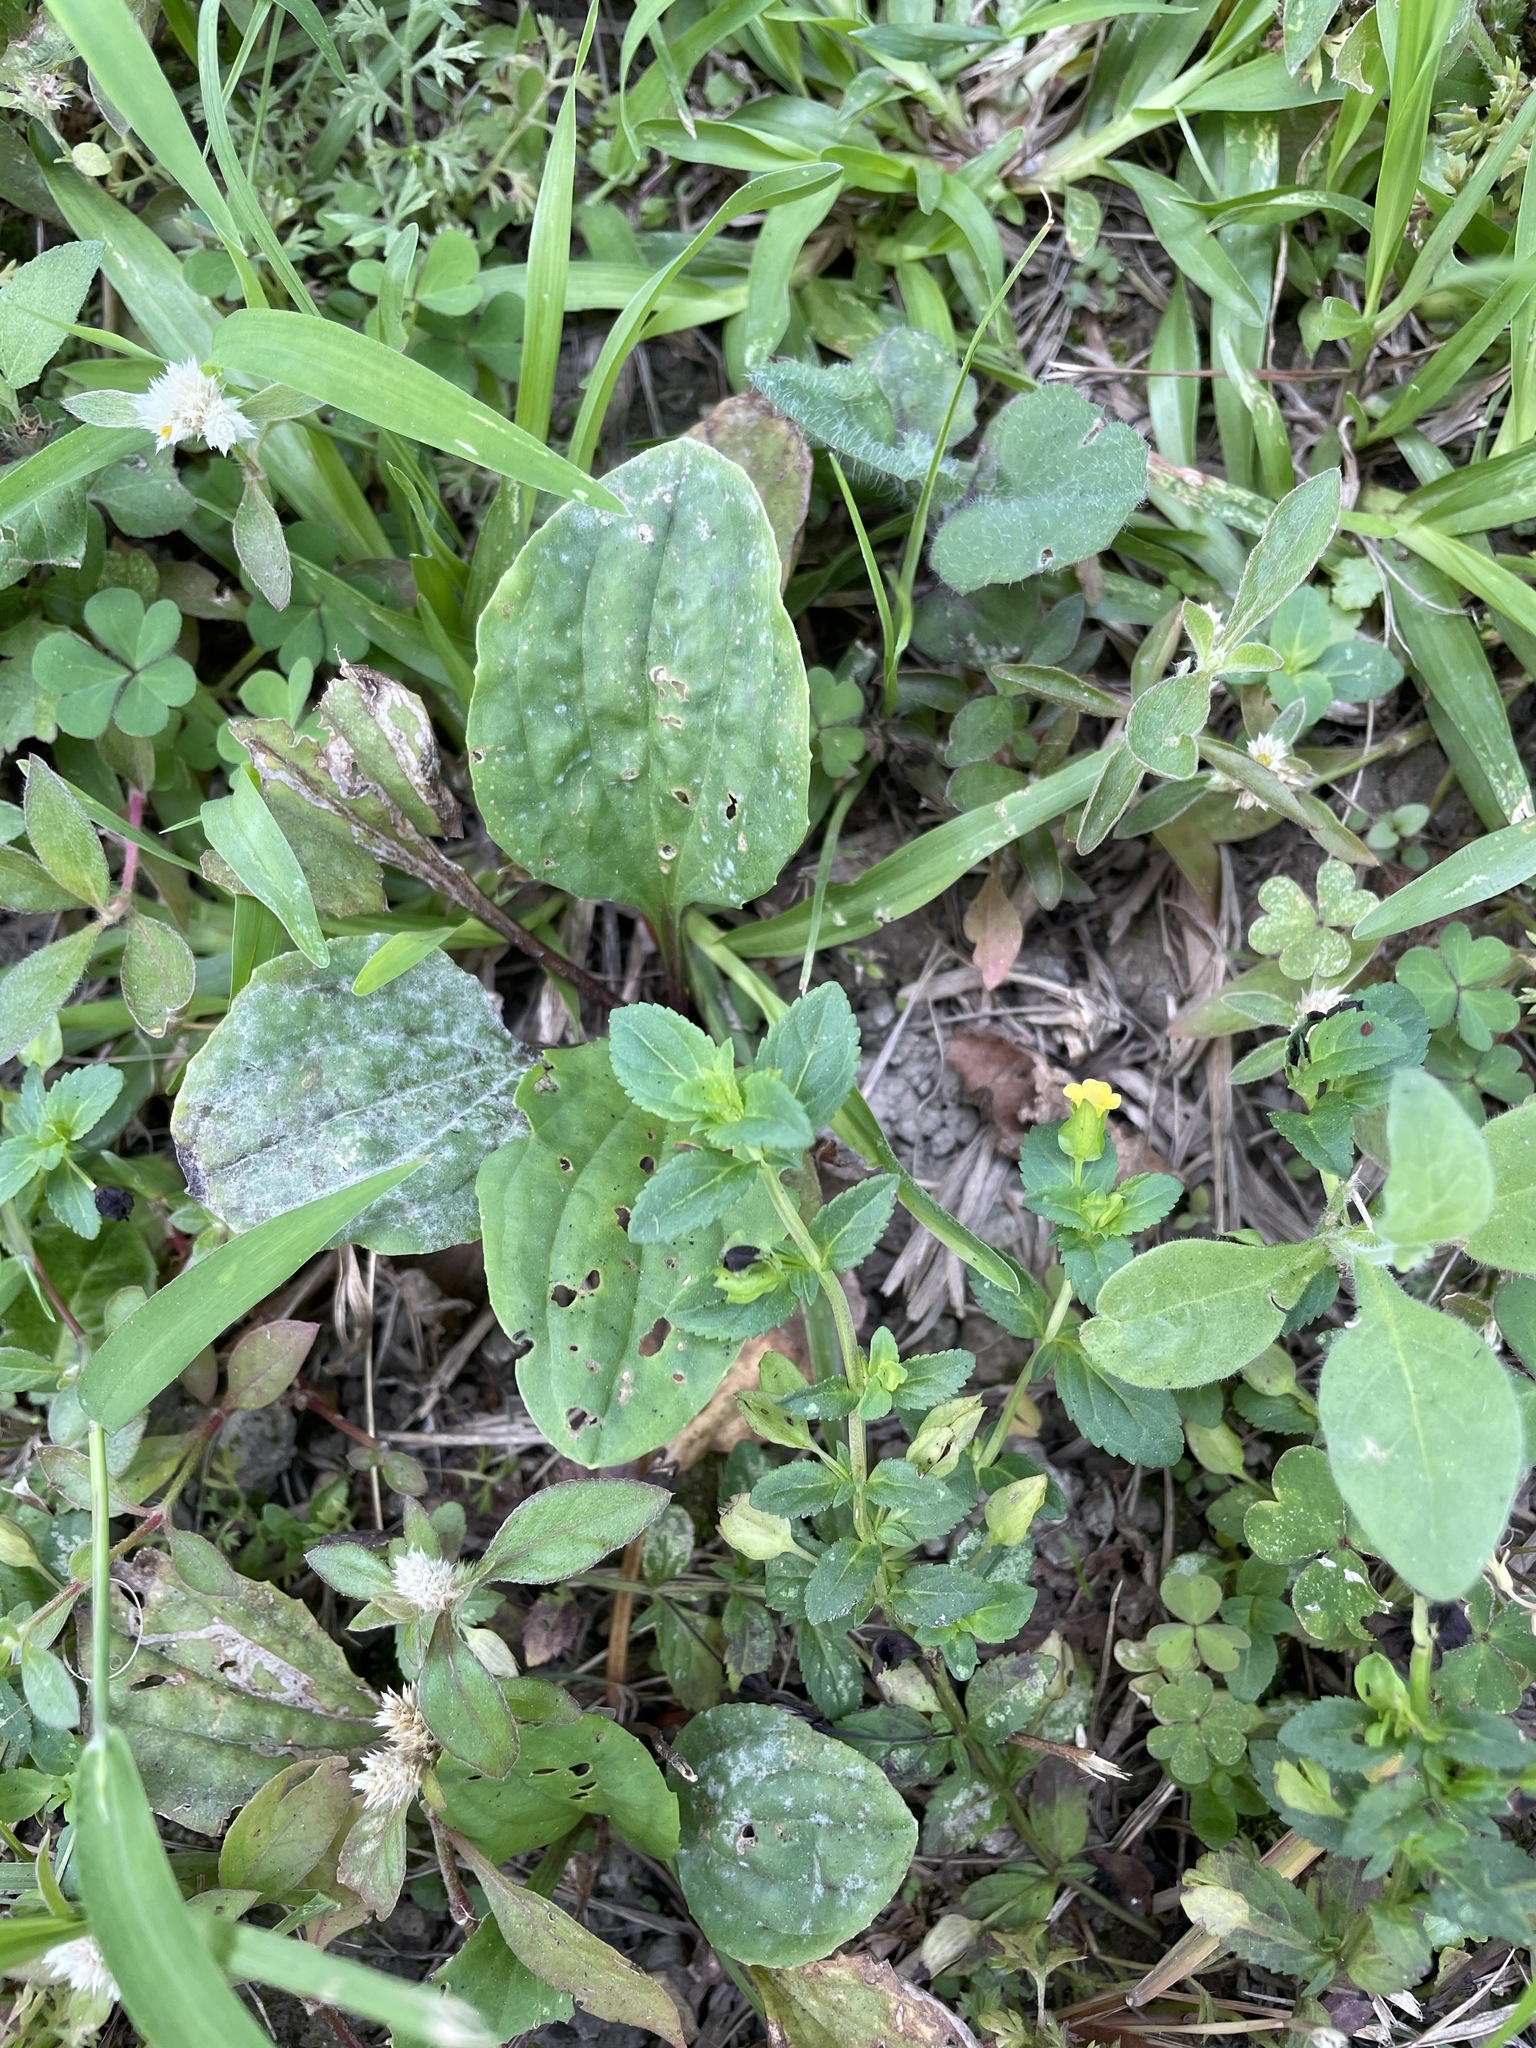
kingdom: Plantae
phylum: Tracheophyta
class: Magnoliopsida
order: Lamiales
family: Plantaginaceae
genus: Plantago
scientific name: Plantago asiatica
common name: Psyllium
